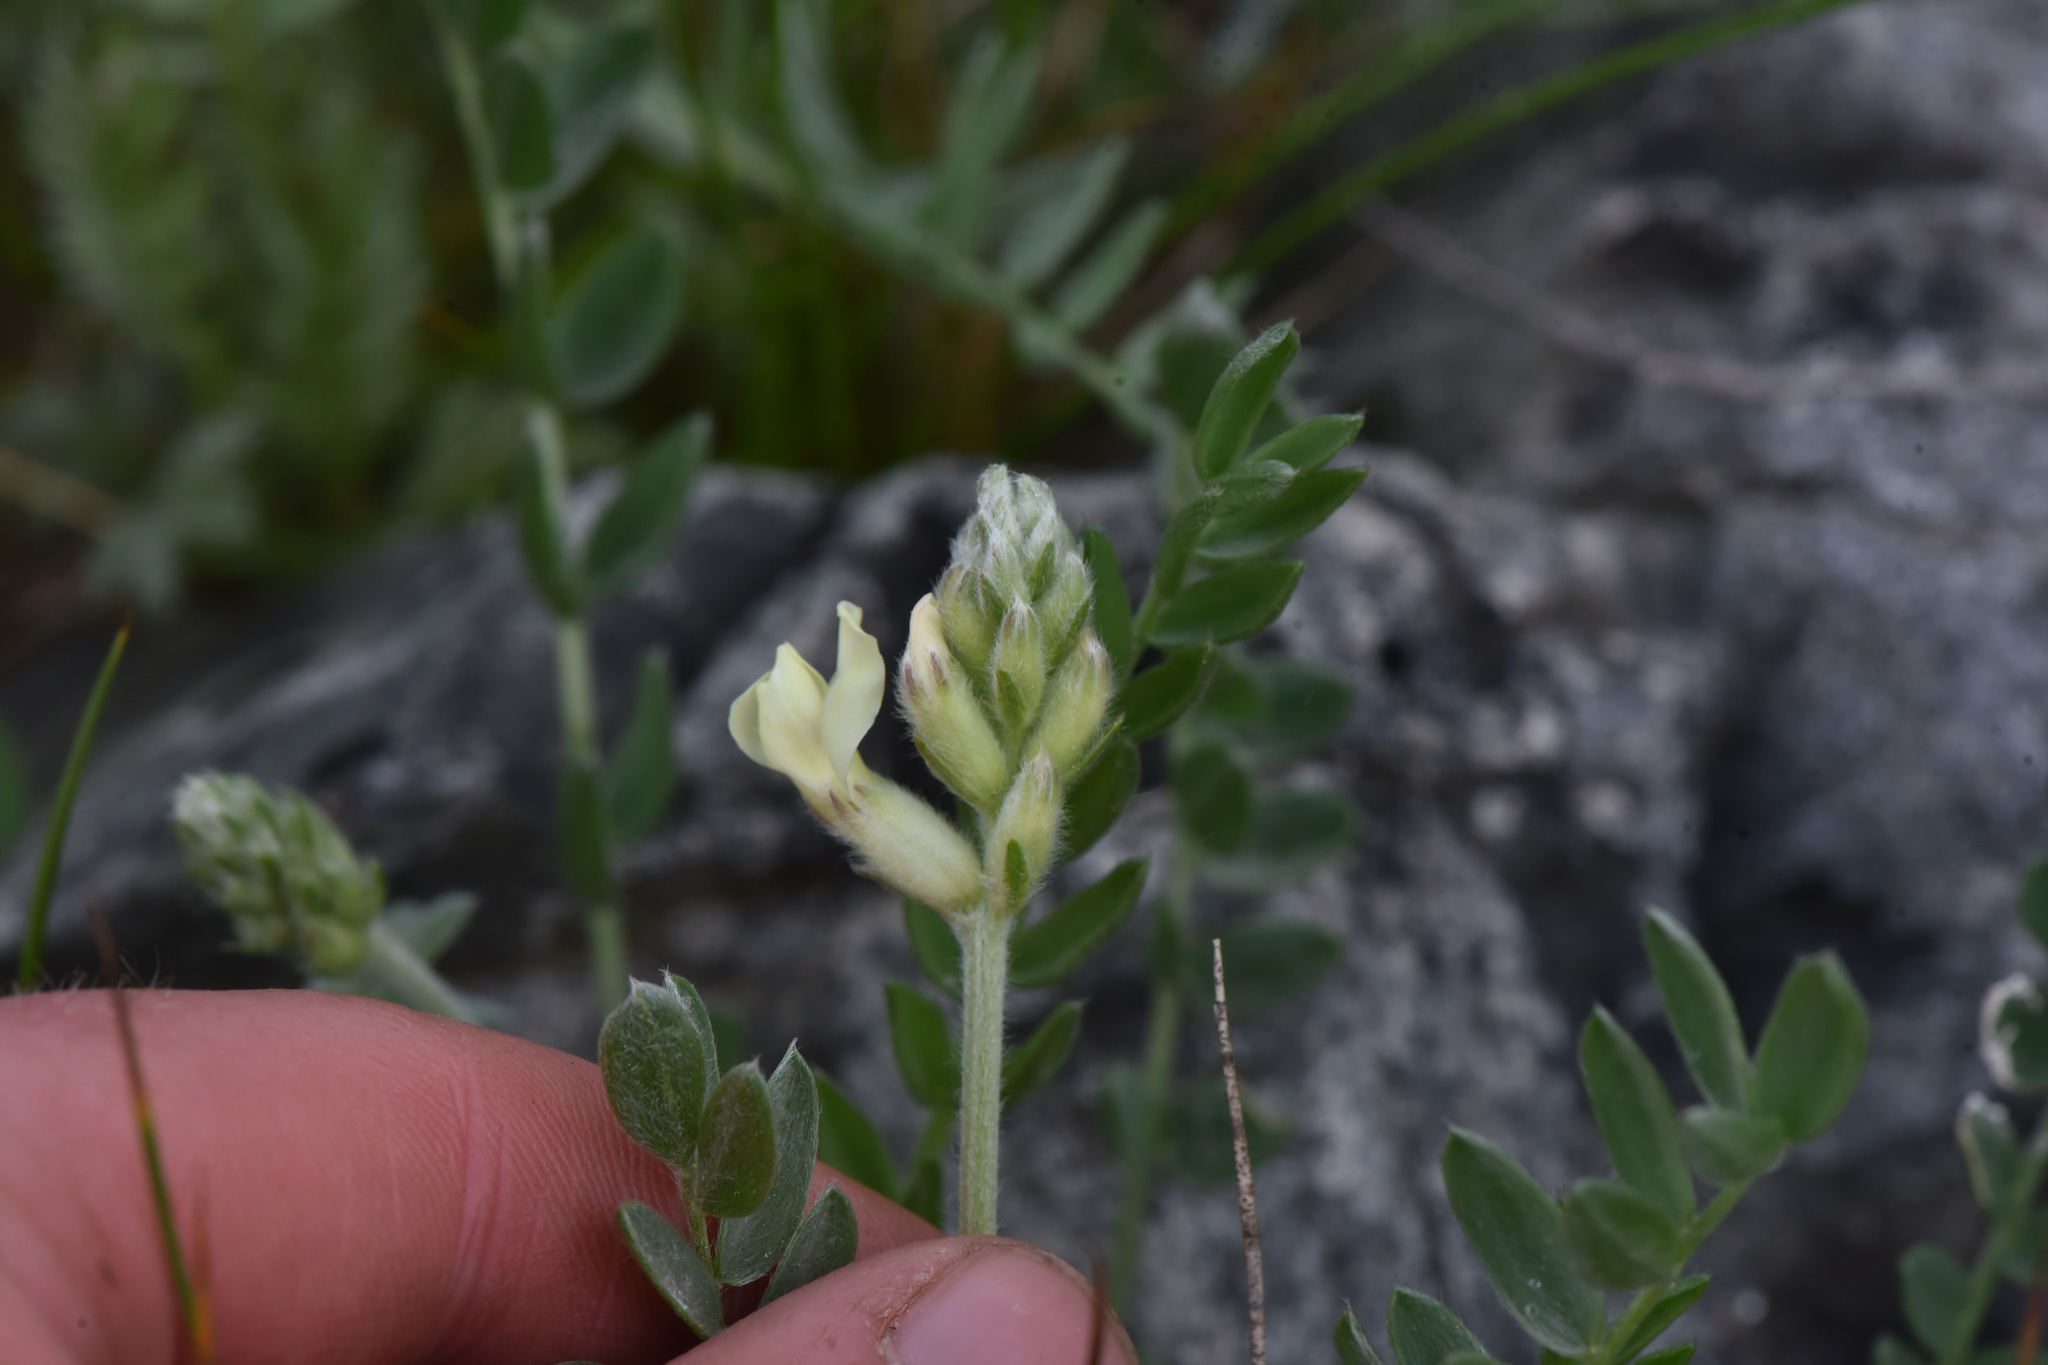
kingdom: Plantae
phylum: Tracheophyta
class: Magnoliopsida
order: Fabales
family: Fabaceae
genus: Oxytropis
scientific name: Oxytropis campestris
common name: Field locoweed
